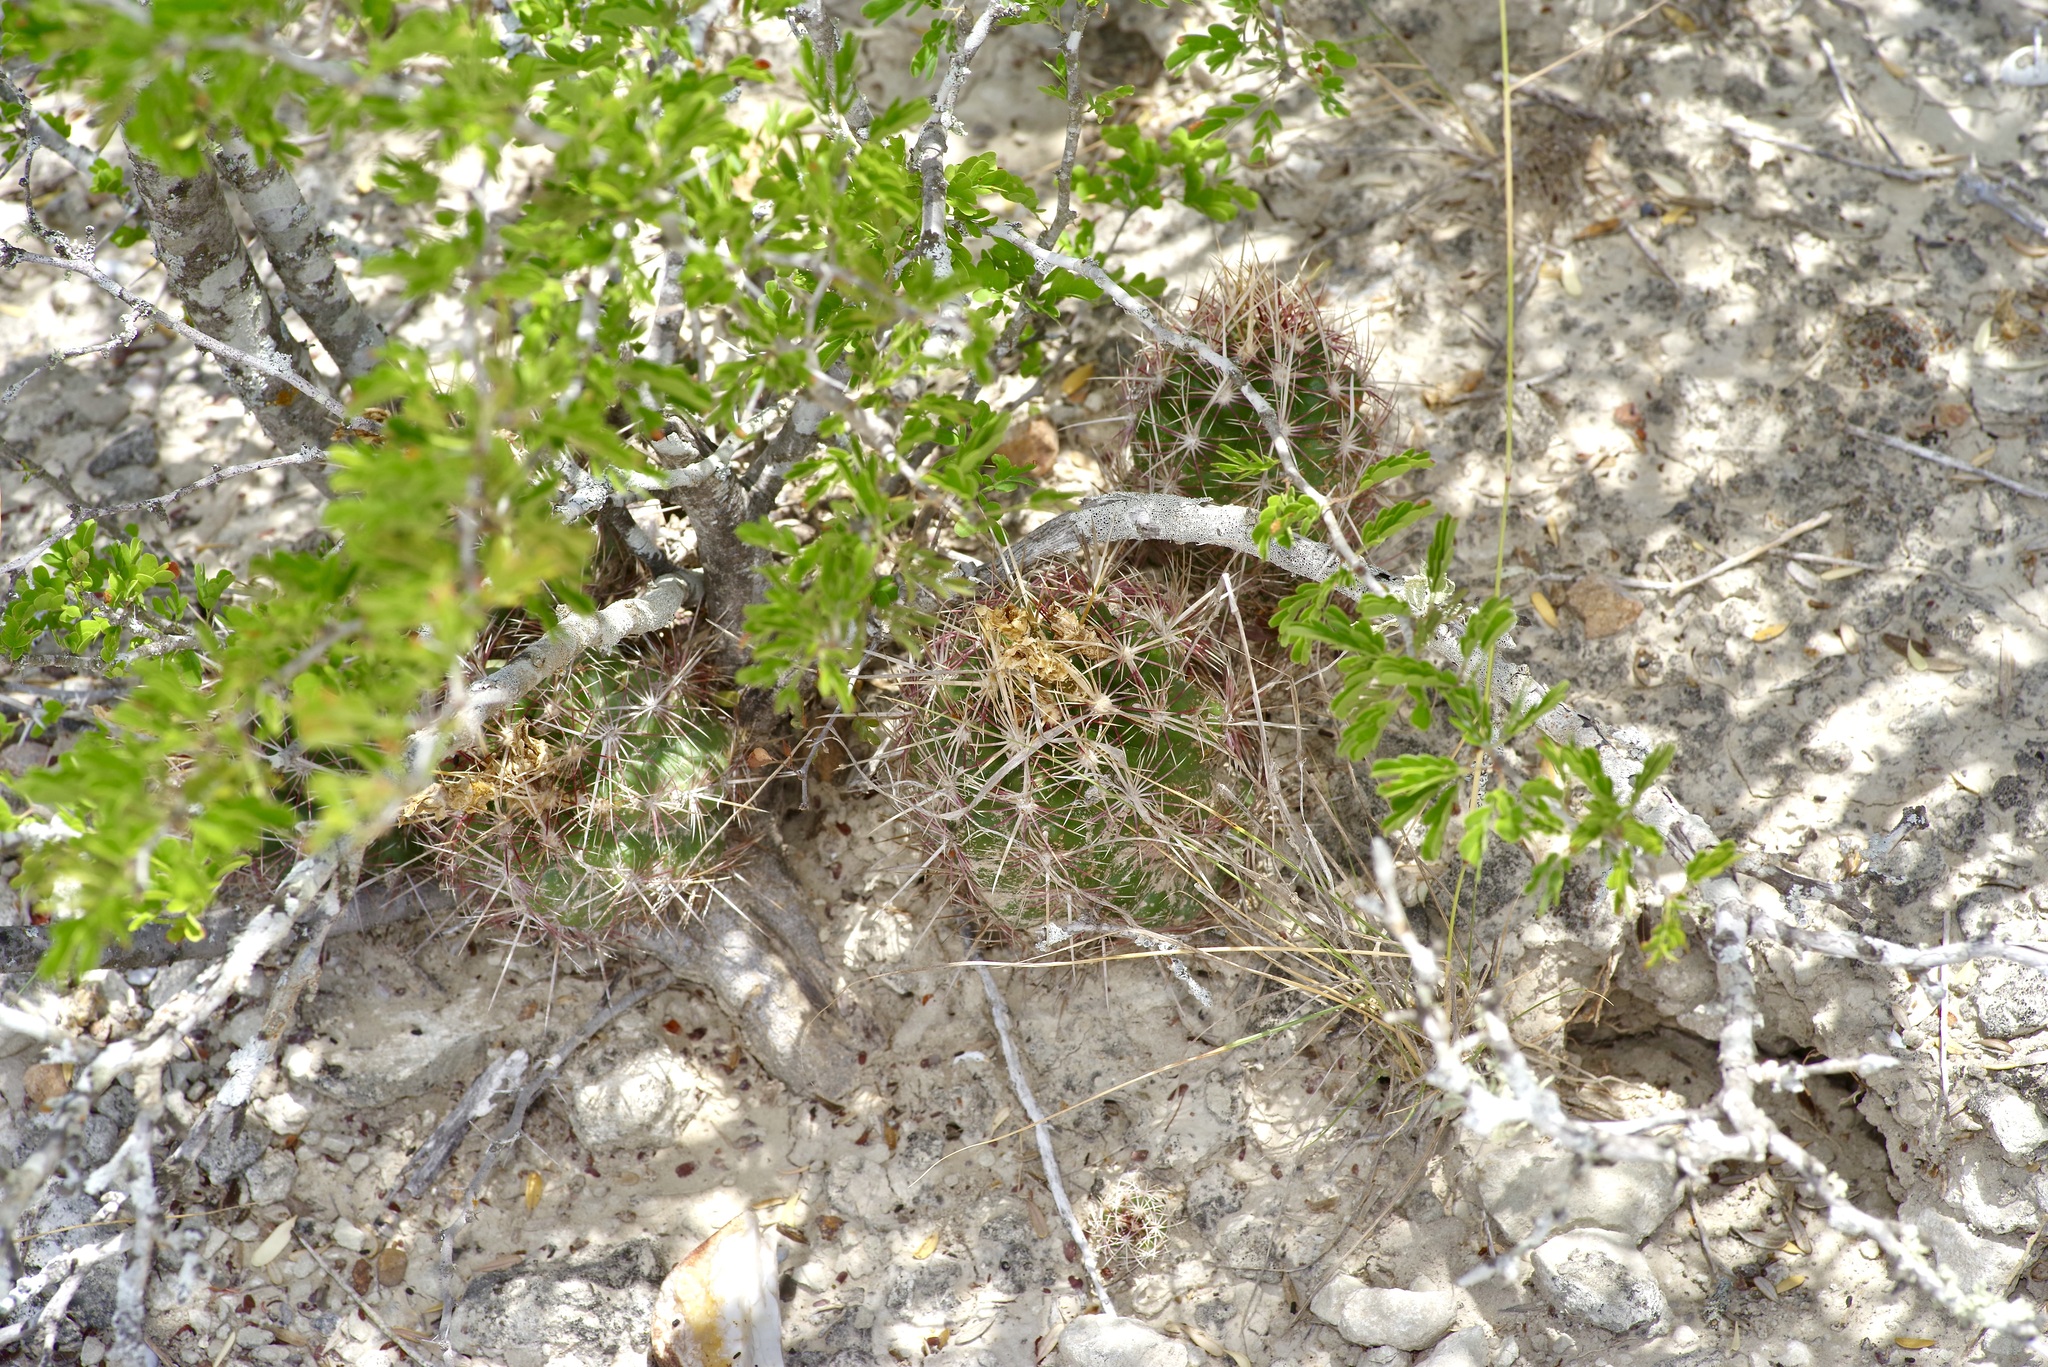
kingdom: Plantae
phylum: Tracheophyta
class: Magnoliopsida
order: Caryophyllales
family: Cactaceae
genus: Thelocactus
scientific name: Thelocactus bicolor
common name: Glory of texas
